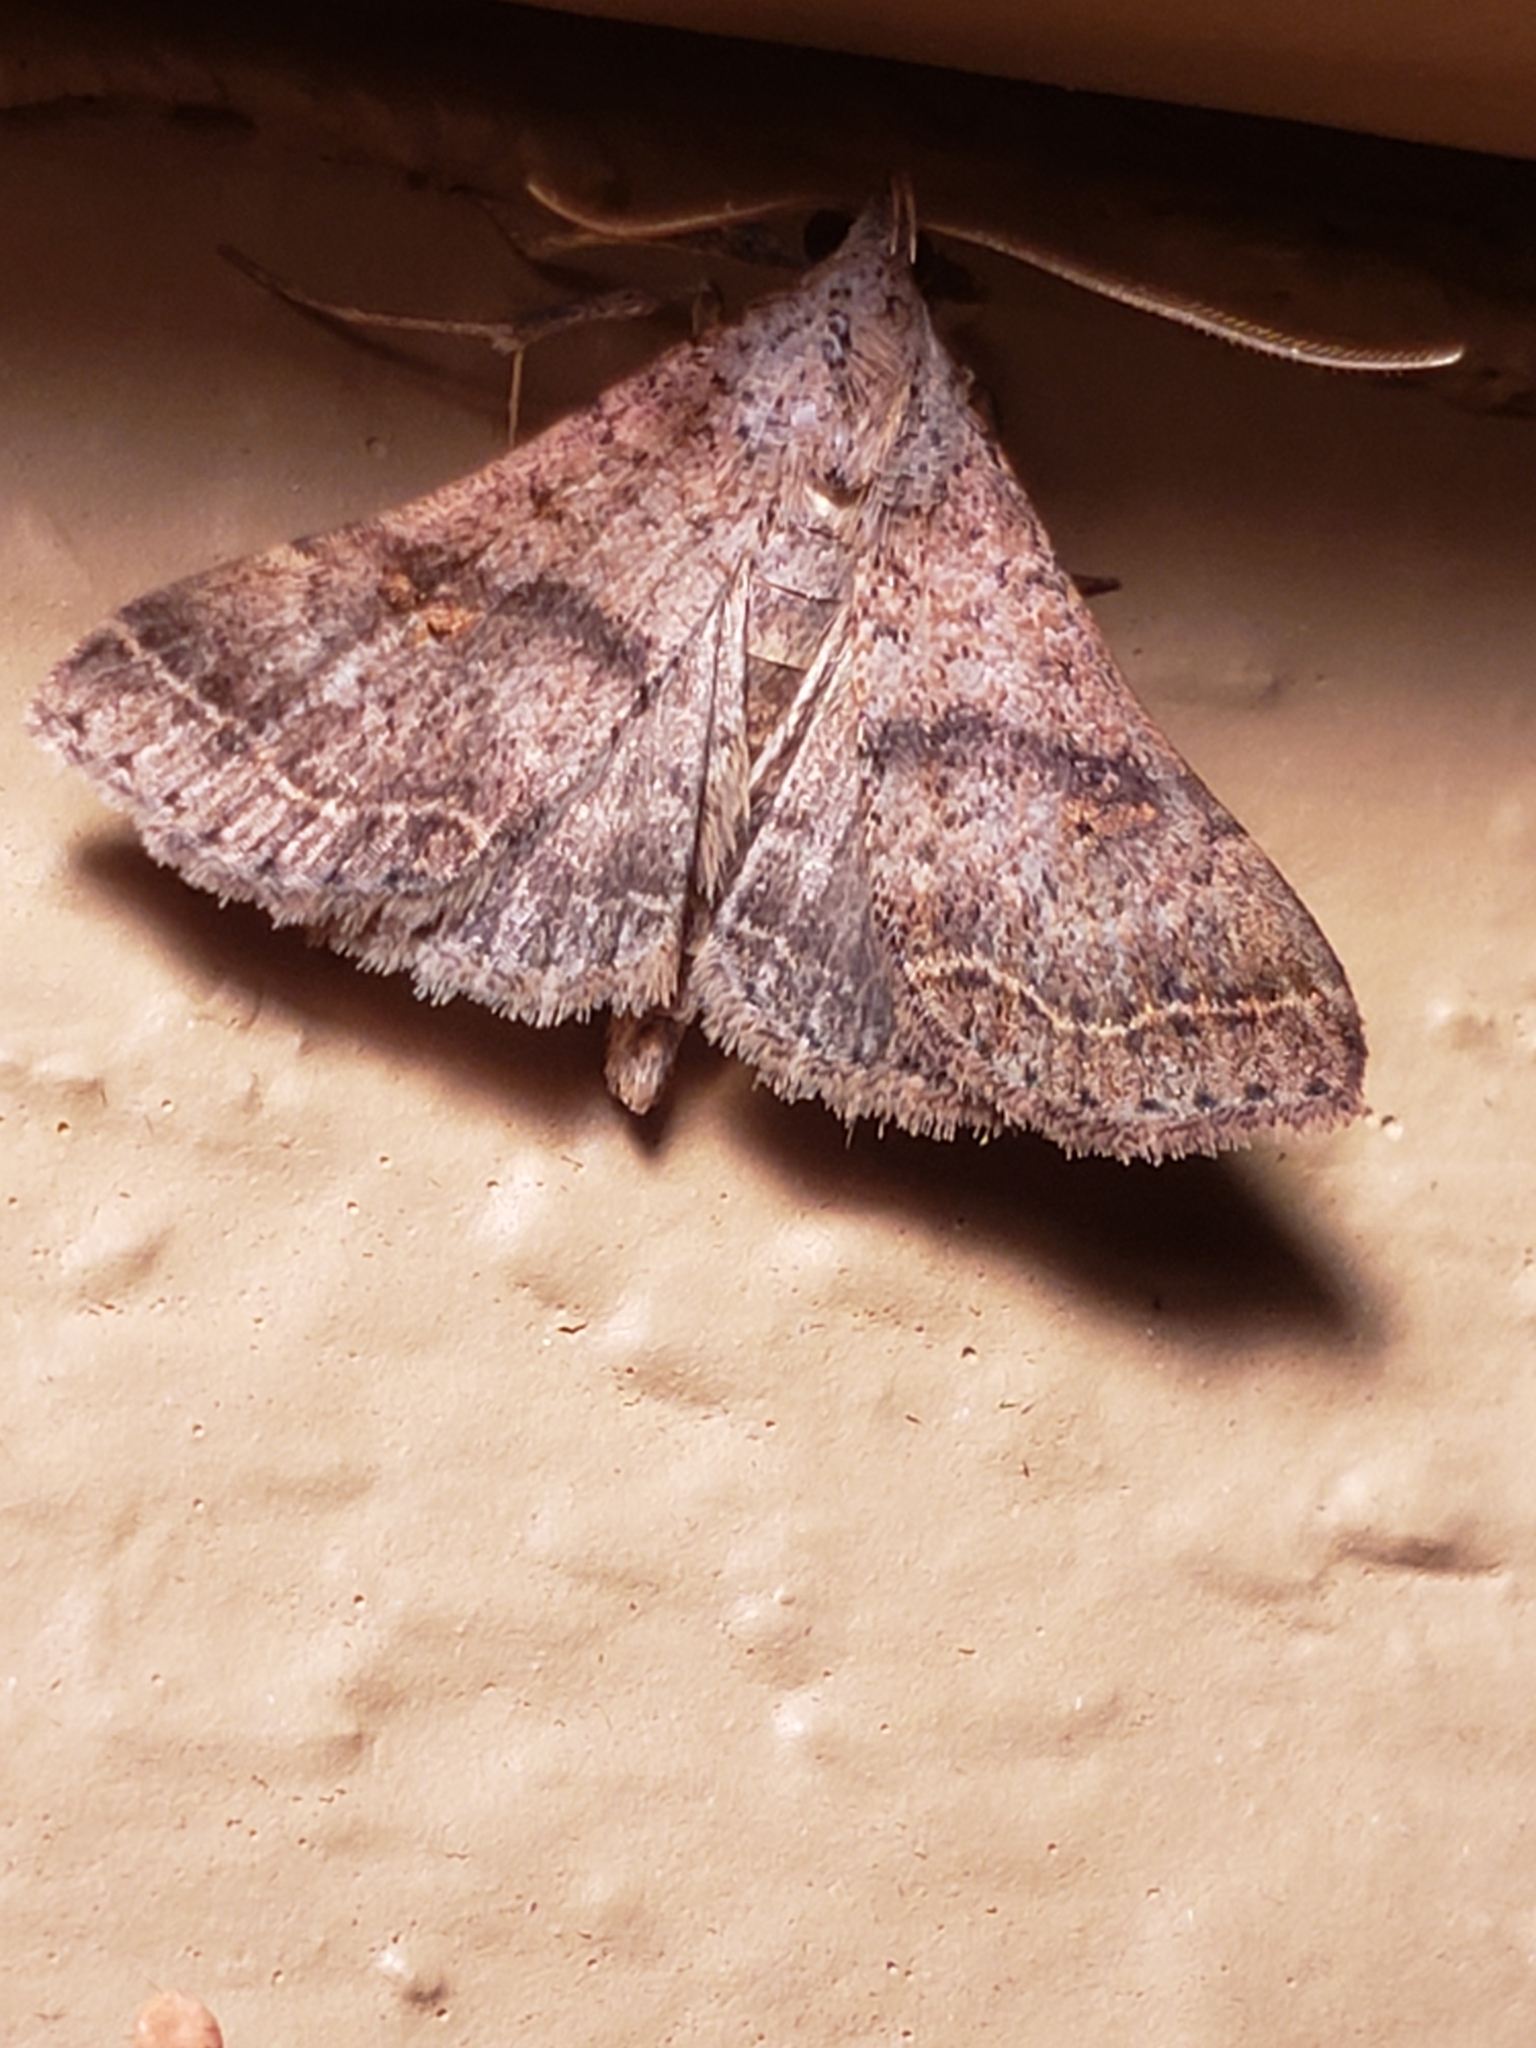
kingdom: Animalia
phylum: Arthropoda
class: Insecta
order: Lepidoptera
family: Erebidae
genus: Bleptina
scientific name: Bleptina caradrinalis
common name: Bent-winged owlet
